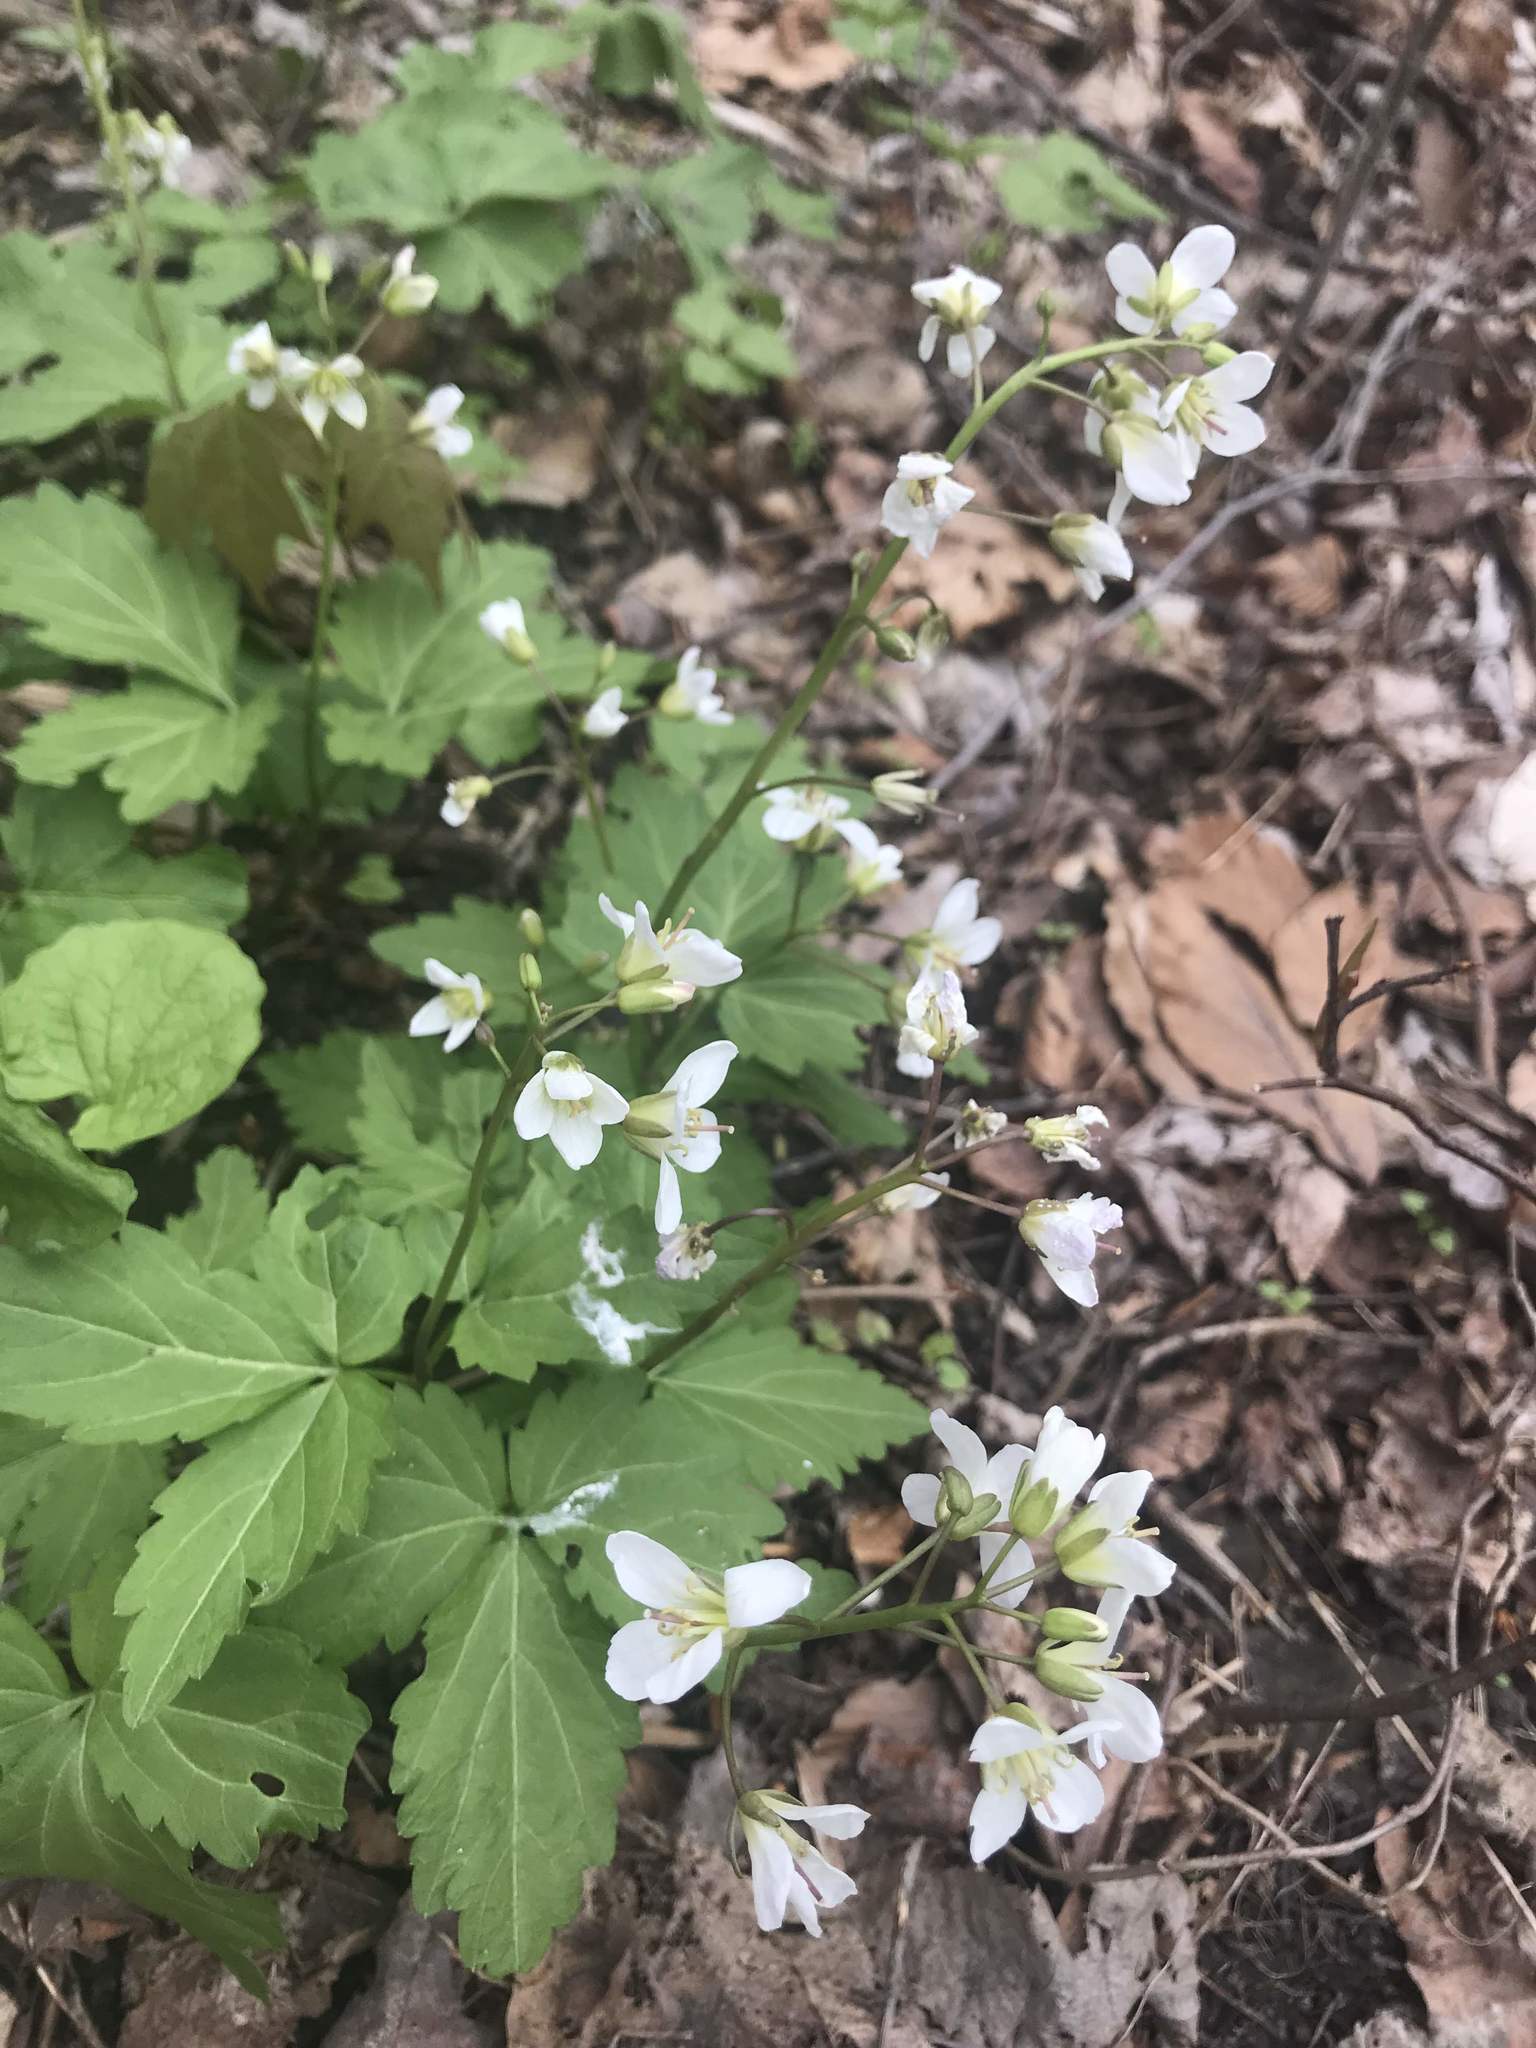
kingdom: Plantae
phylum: Tracheophyta
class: Magnoliopsida
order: Brassicales
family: Brassicaceae
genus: Cardamine
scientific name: Cardamine diphylla
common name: Broad-leaved toothwort
